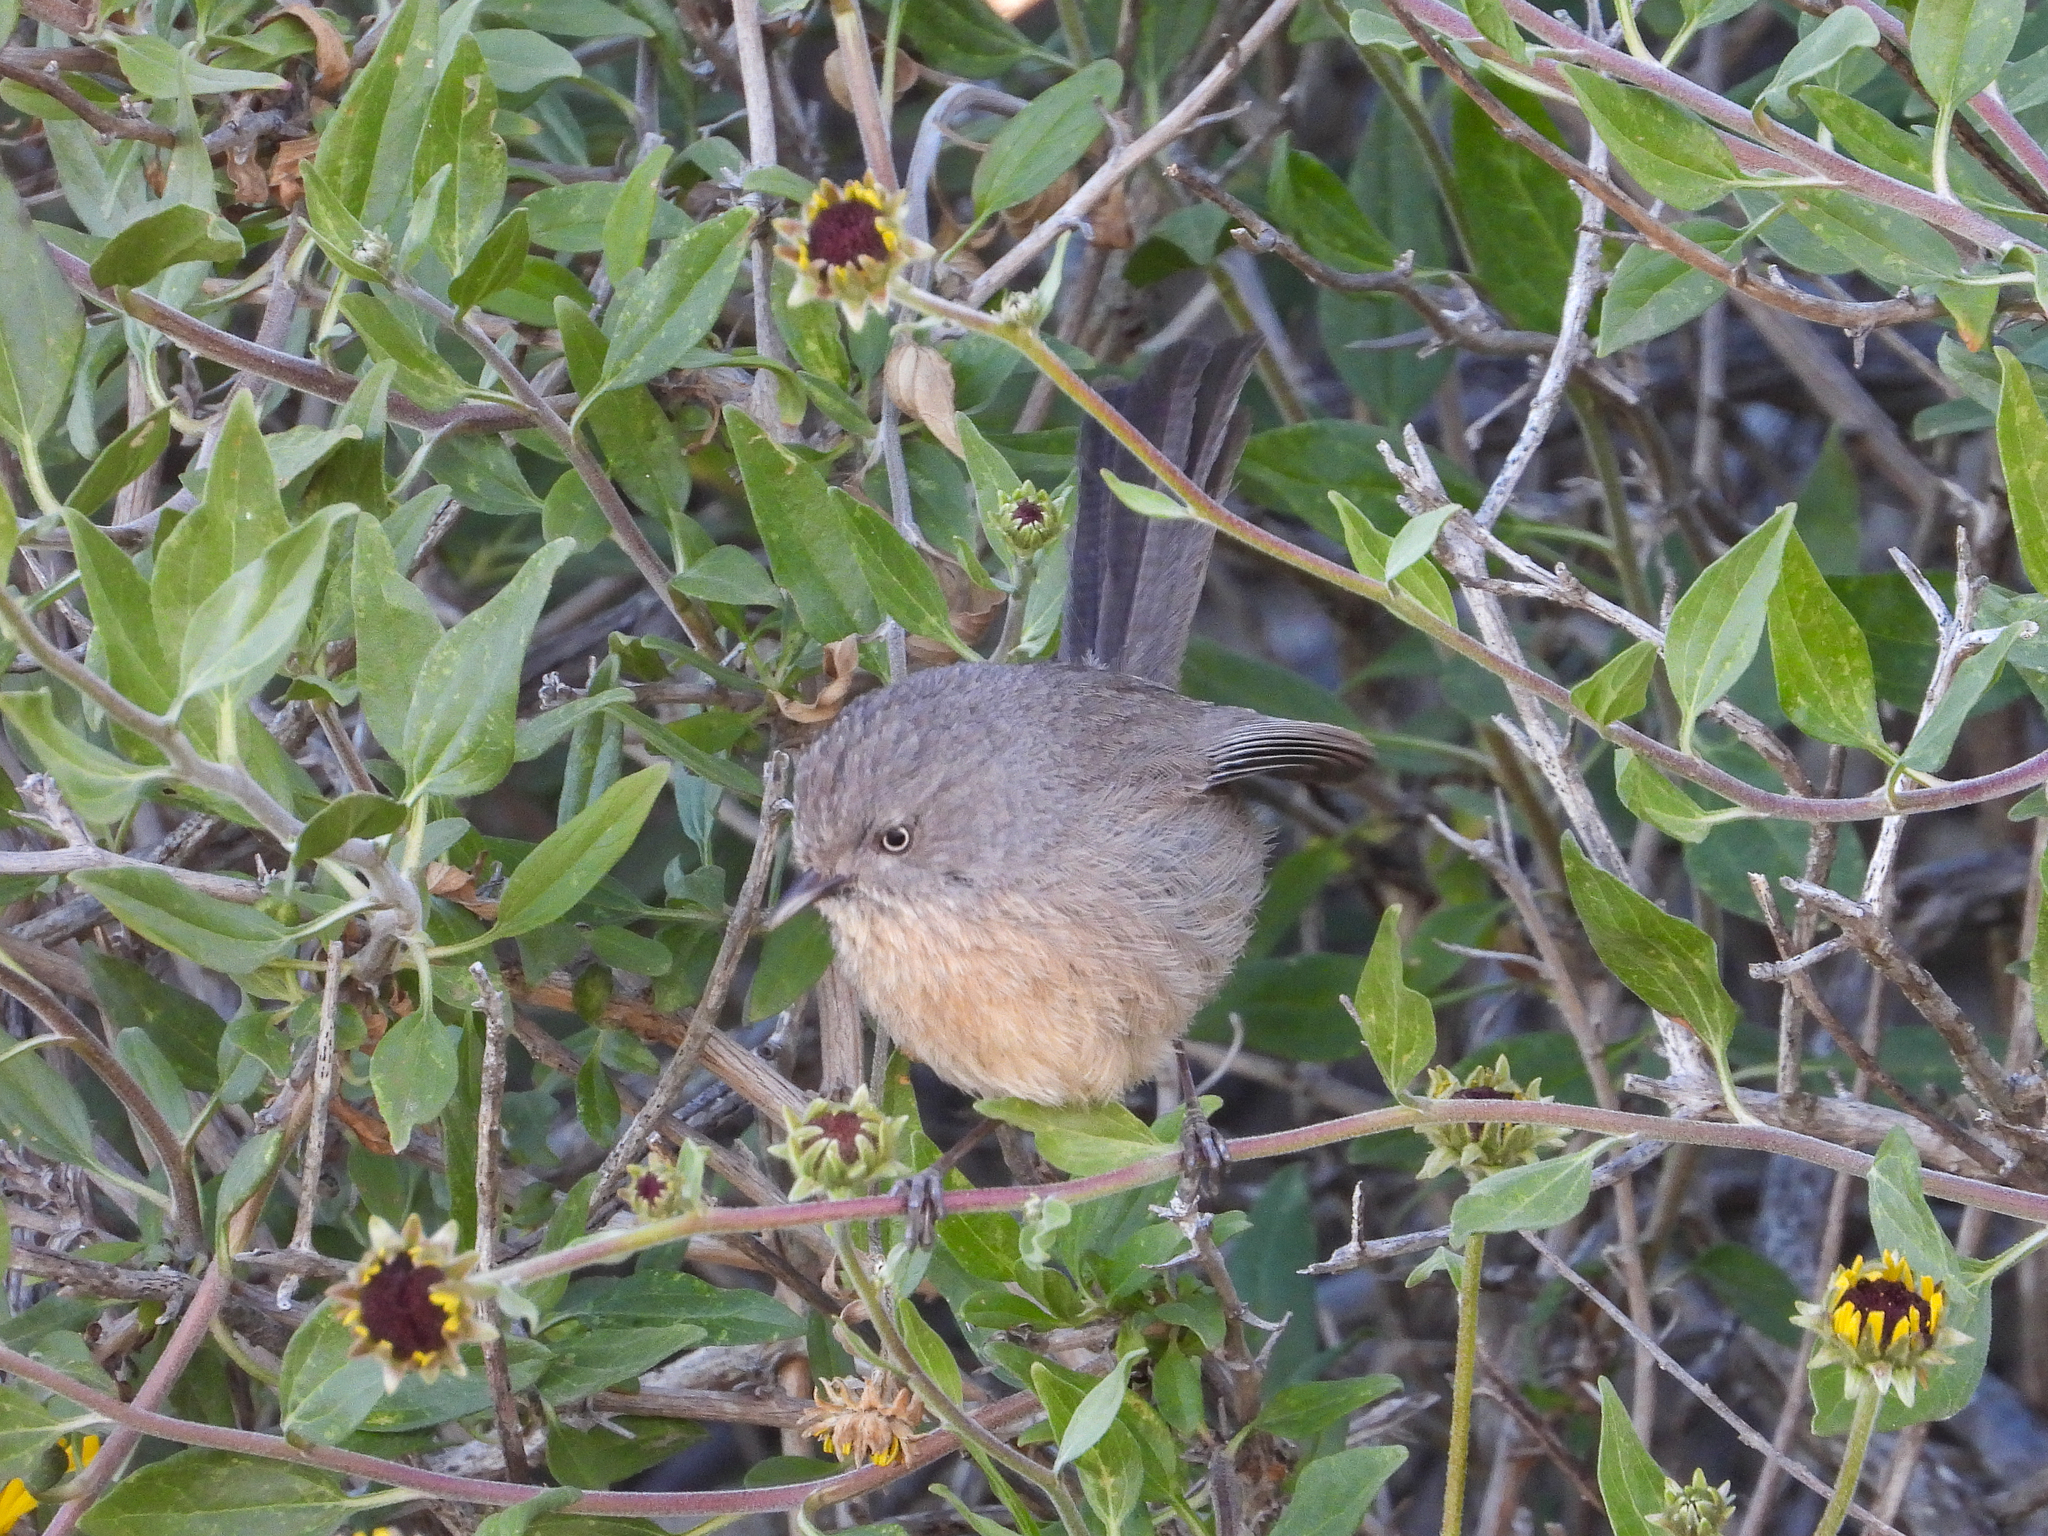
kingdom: Animalia
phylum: Chordata
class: Aves
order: Passeriformes
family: Sylviidae
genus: Chamaea
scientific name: Chamaea fasciata
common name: Wrentit
